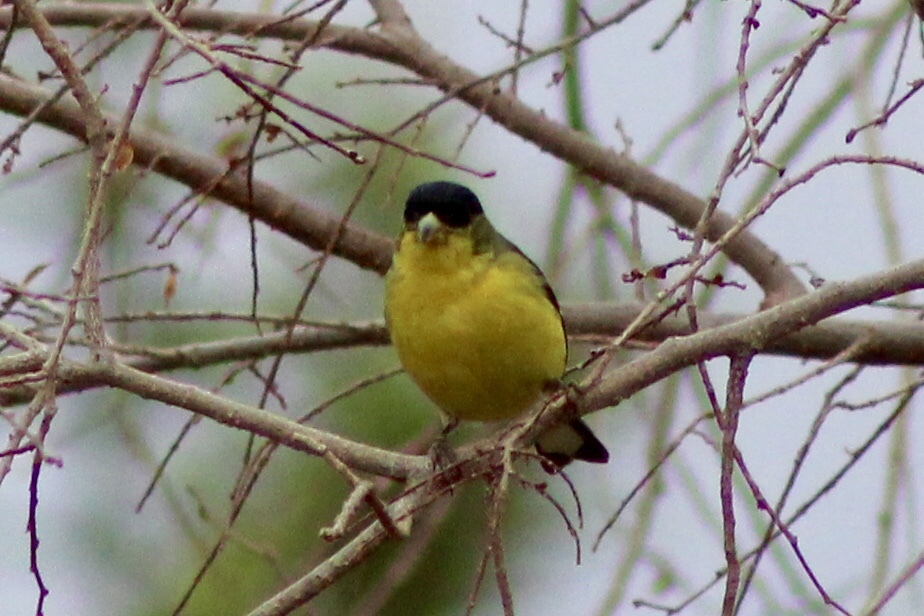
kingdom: Animalia
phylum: Chordata
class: Aves
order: Passeriformes
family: Fringillidae
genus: Spinus
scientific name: Spinus psaltria
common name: Lesser goldfinch
